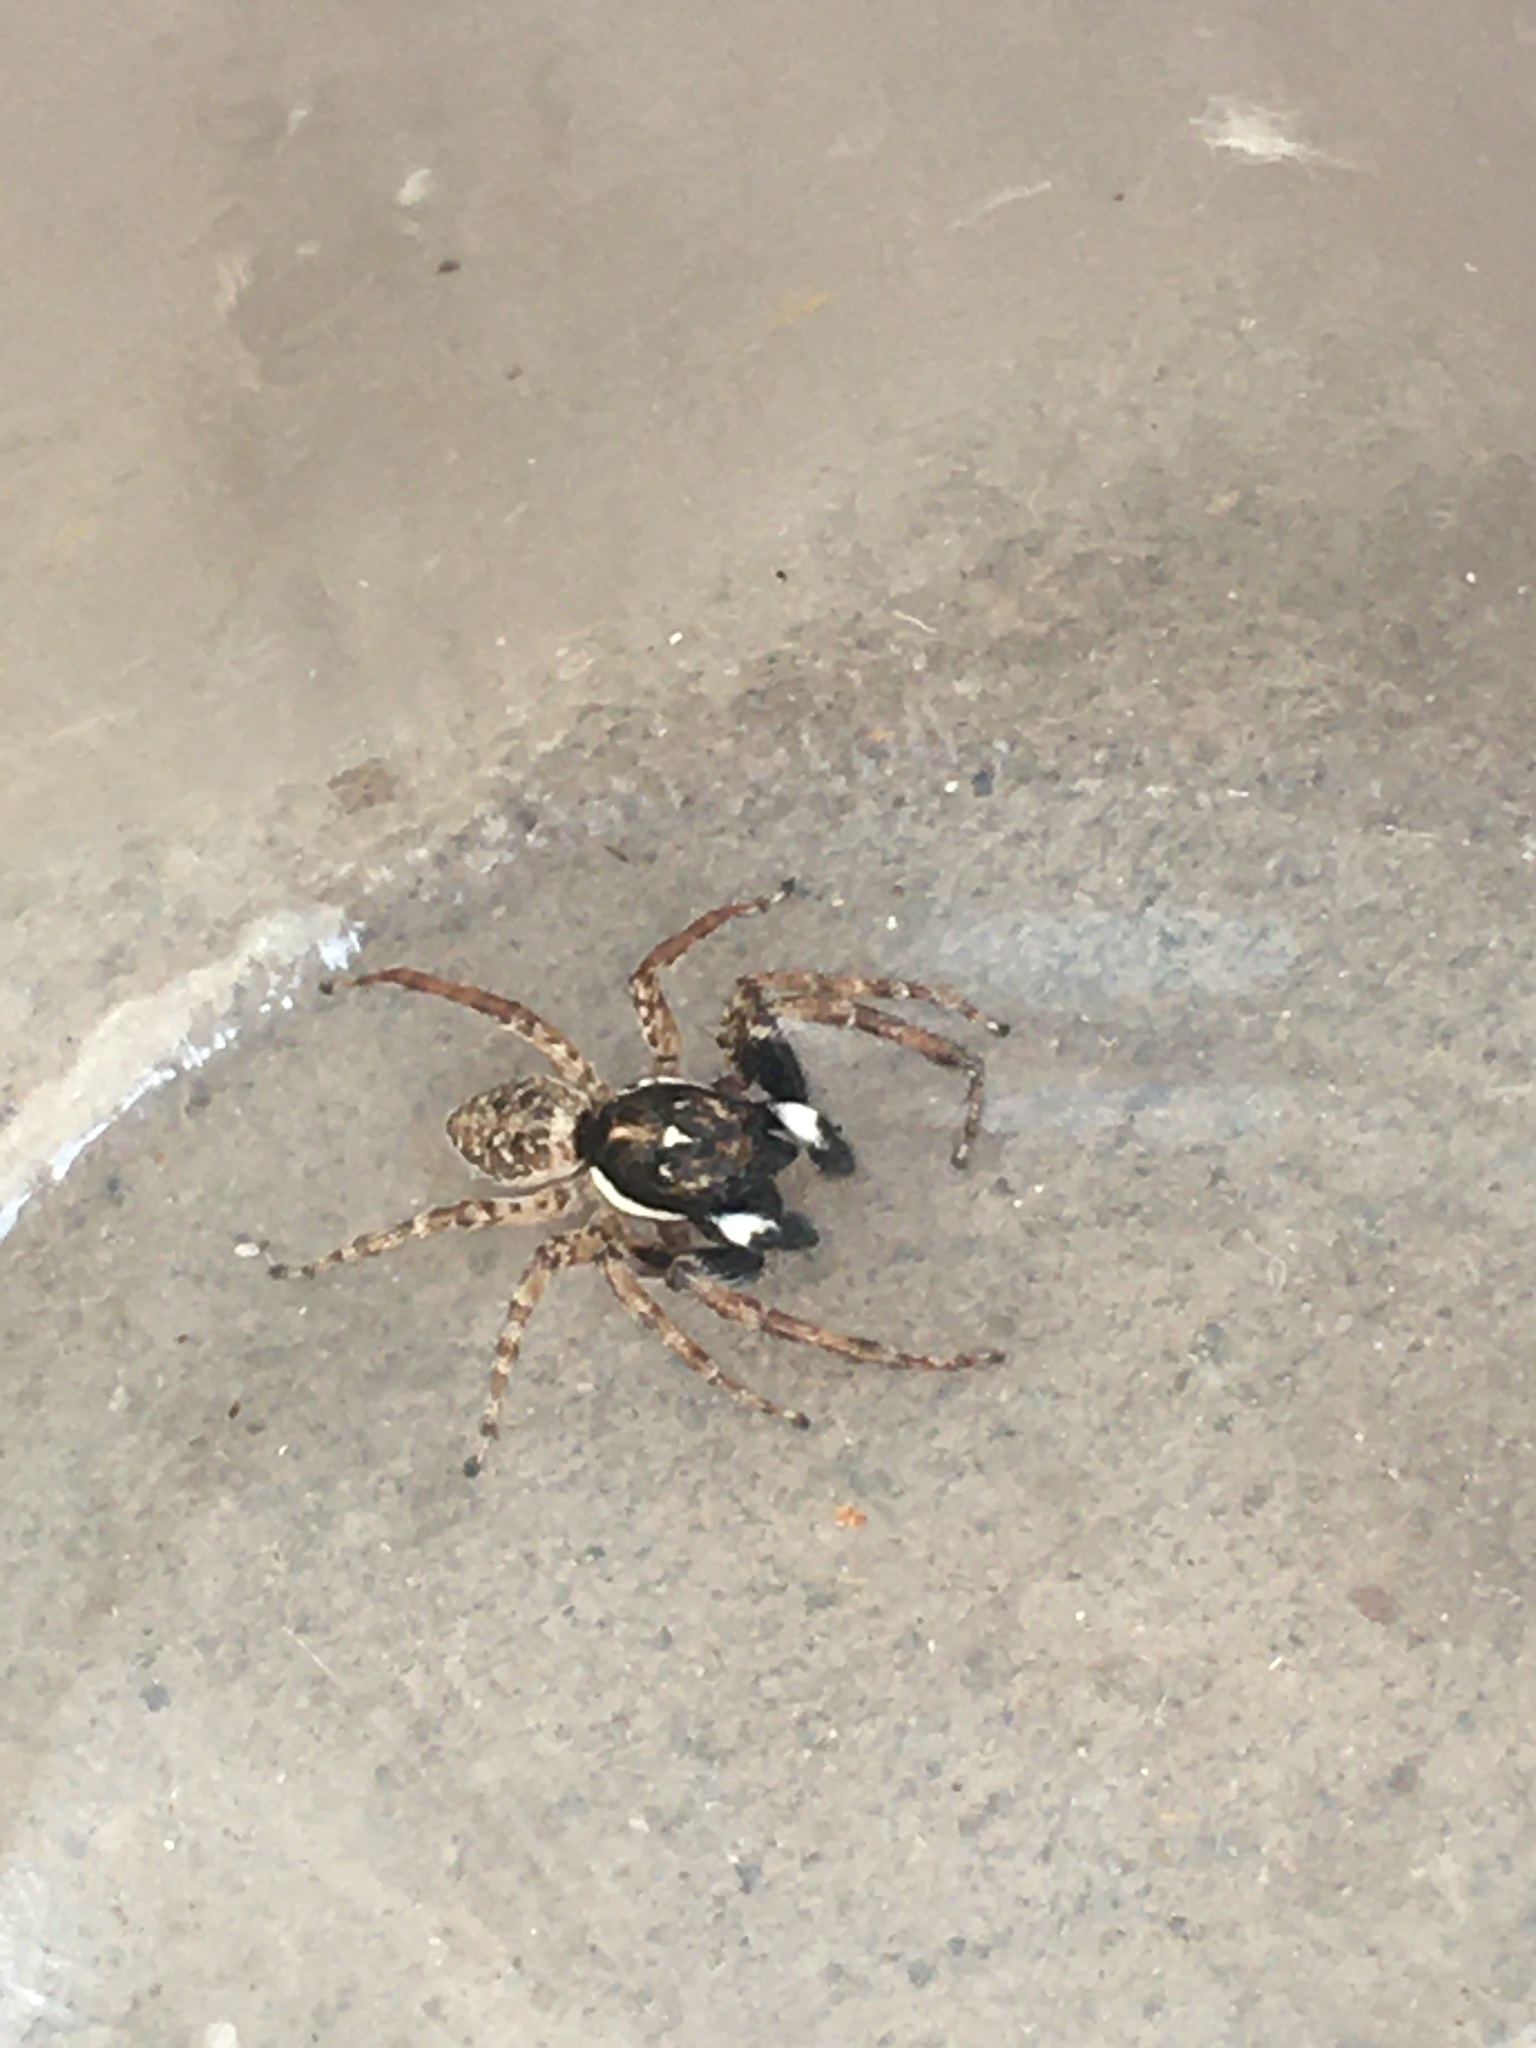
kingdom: Animalia
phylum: Arthropoda
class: Arachnida
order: Araneae
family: Salticidae
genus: Menemerus
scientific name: Menemerus semilimbatus
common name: Jumping spider
